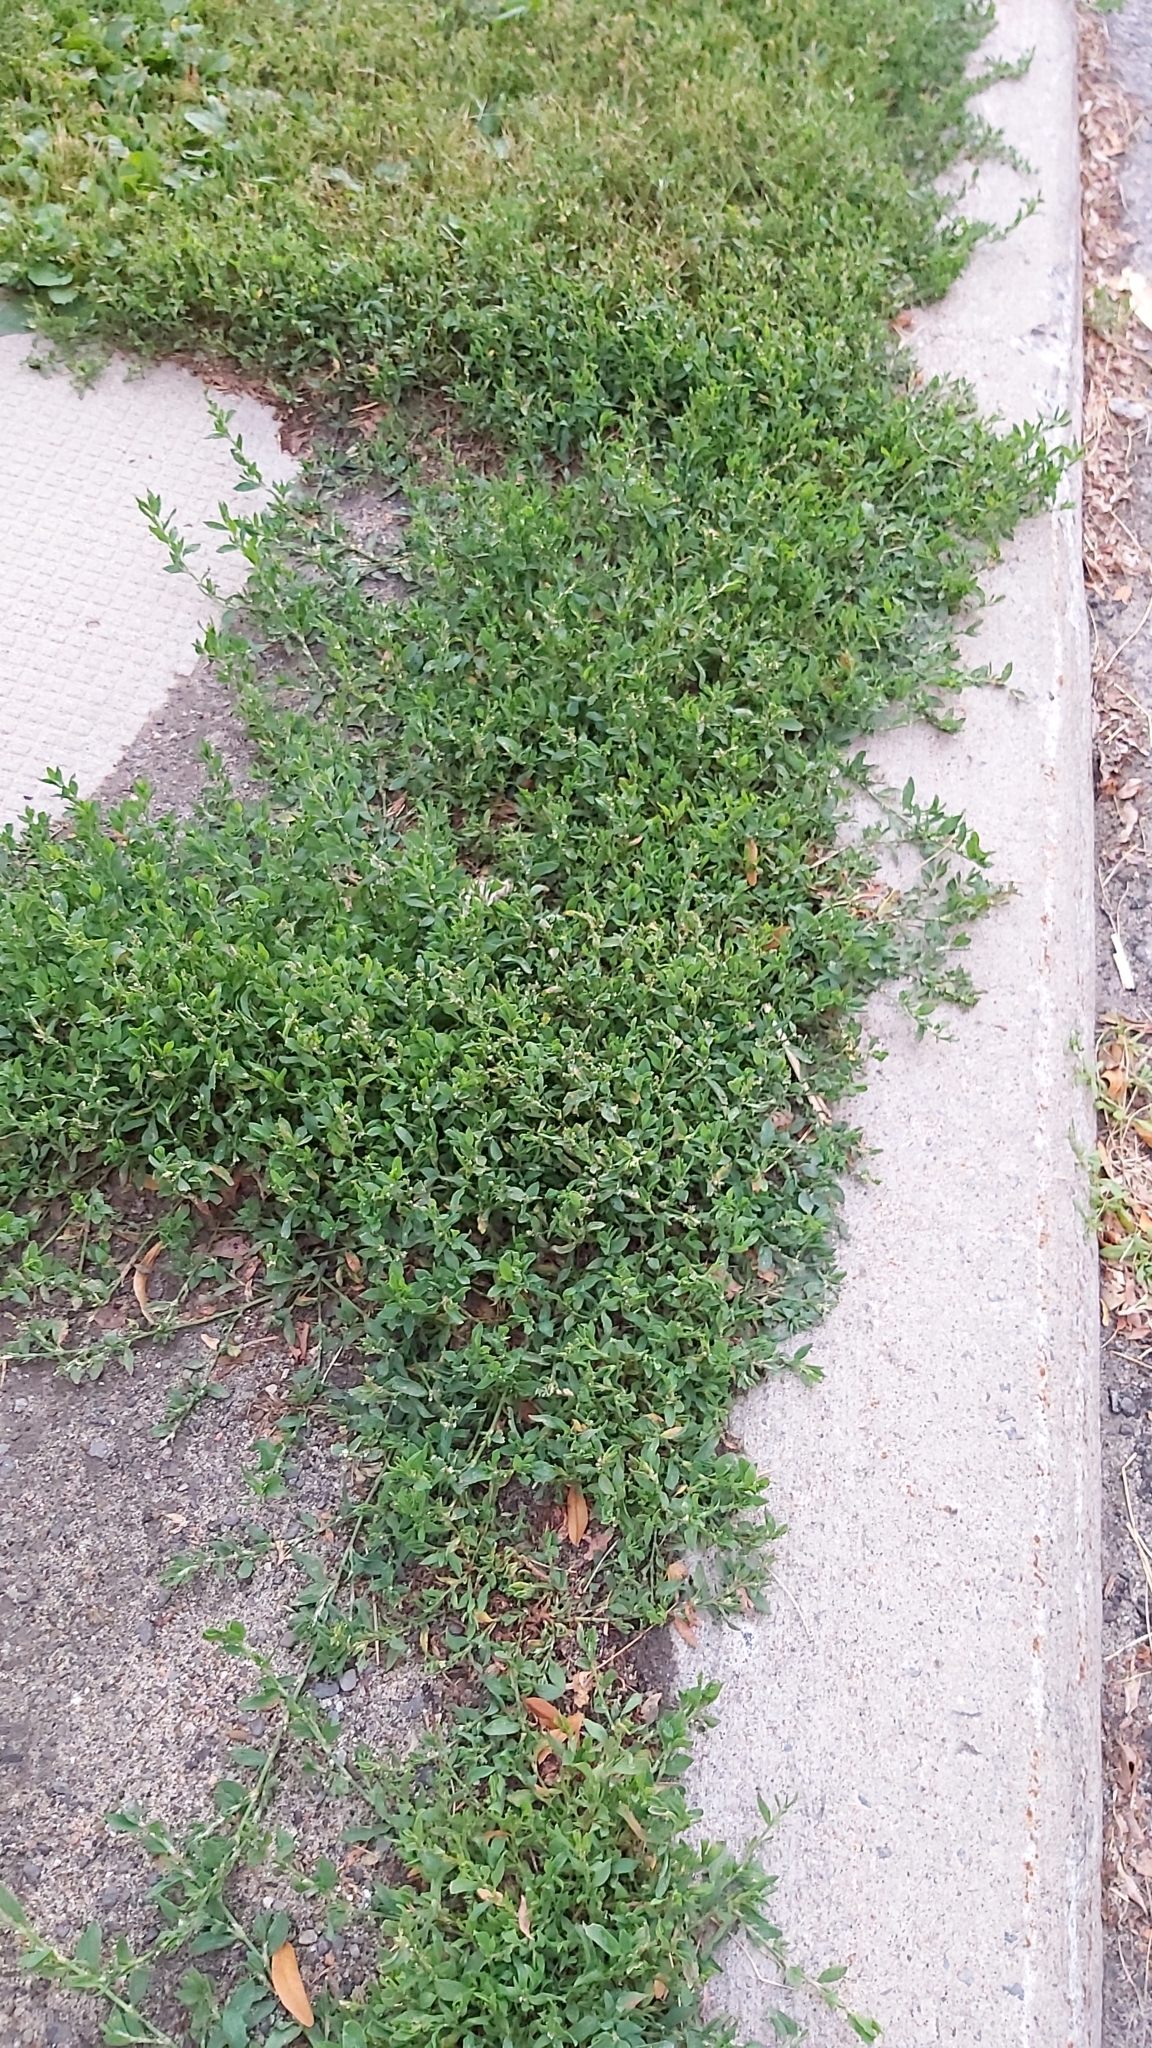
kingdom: Plantae
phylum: Tracheophyta
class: Magnoliopsida
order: Caryophyllales
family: Polygonaceae
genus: Polygonum
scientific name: Polygonum aviculare
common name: Prostrate knotweed
